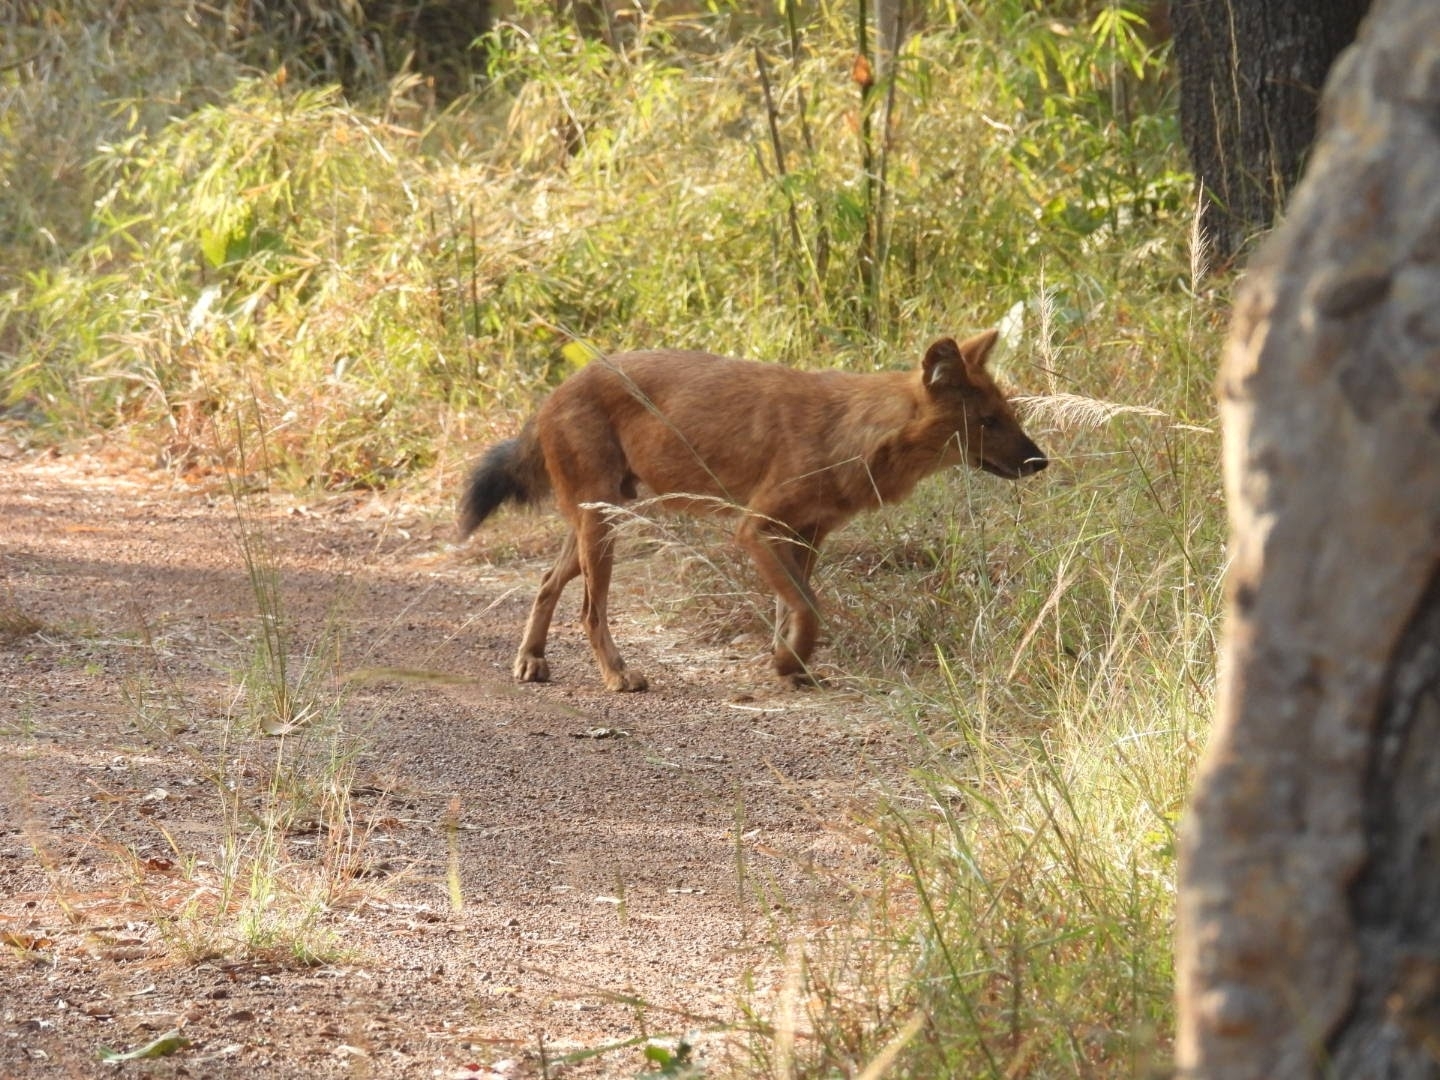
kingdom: Animalia
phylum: Chordata
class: Mammalia
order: Carnivora
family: Canidae
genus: Cuon
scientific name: Cuon alpinus
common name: Dhole
